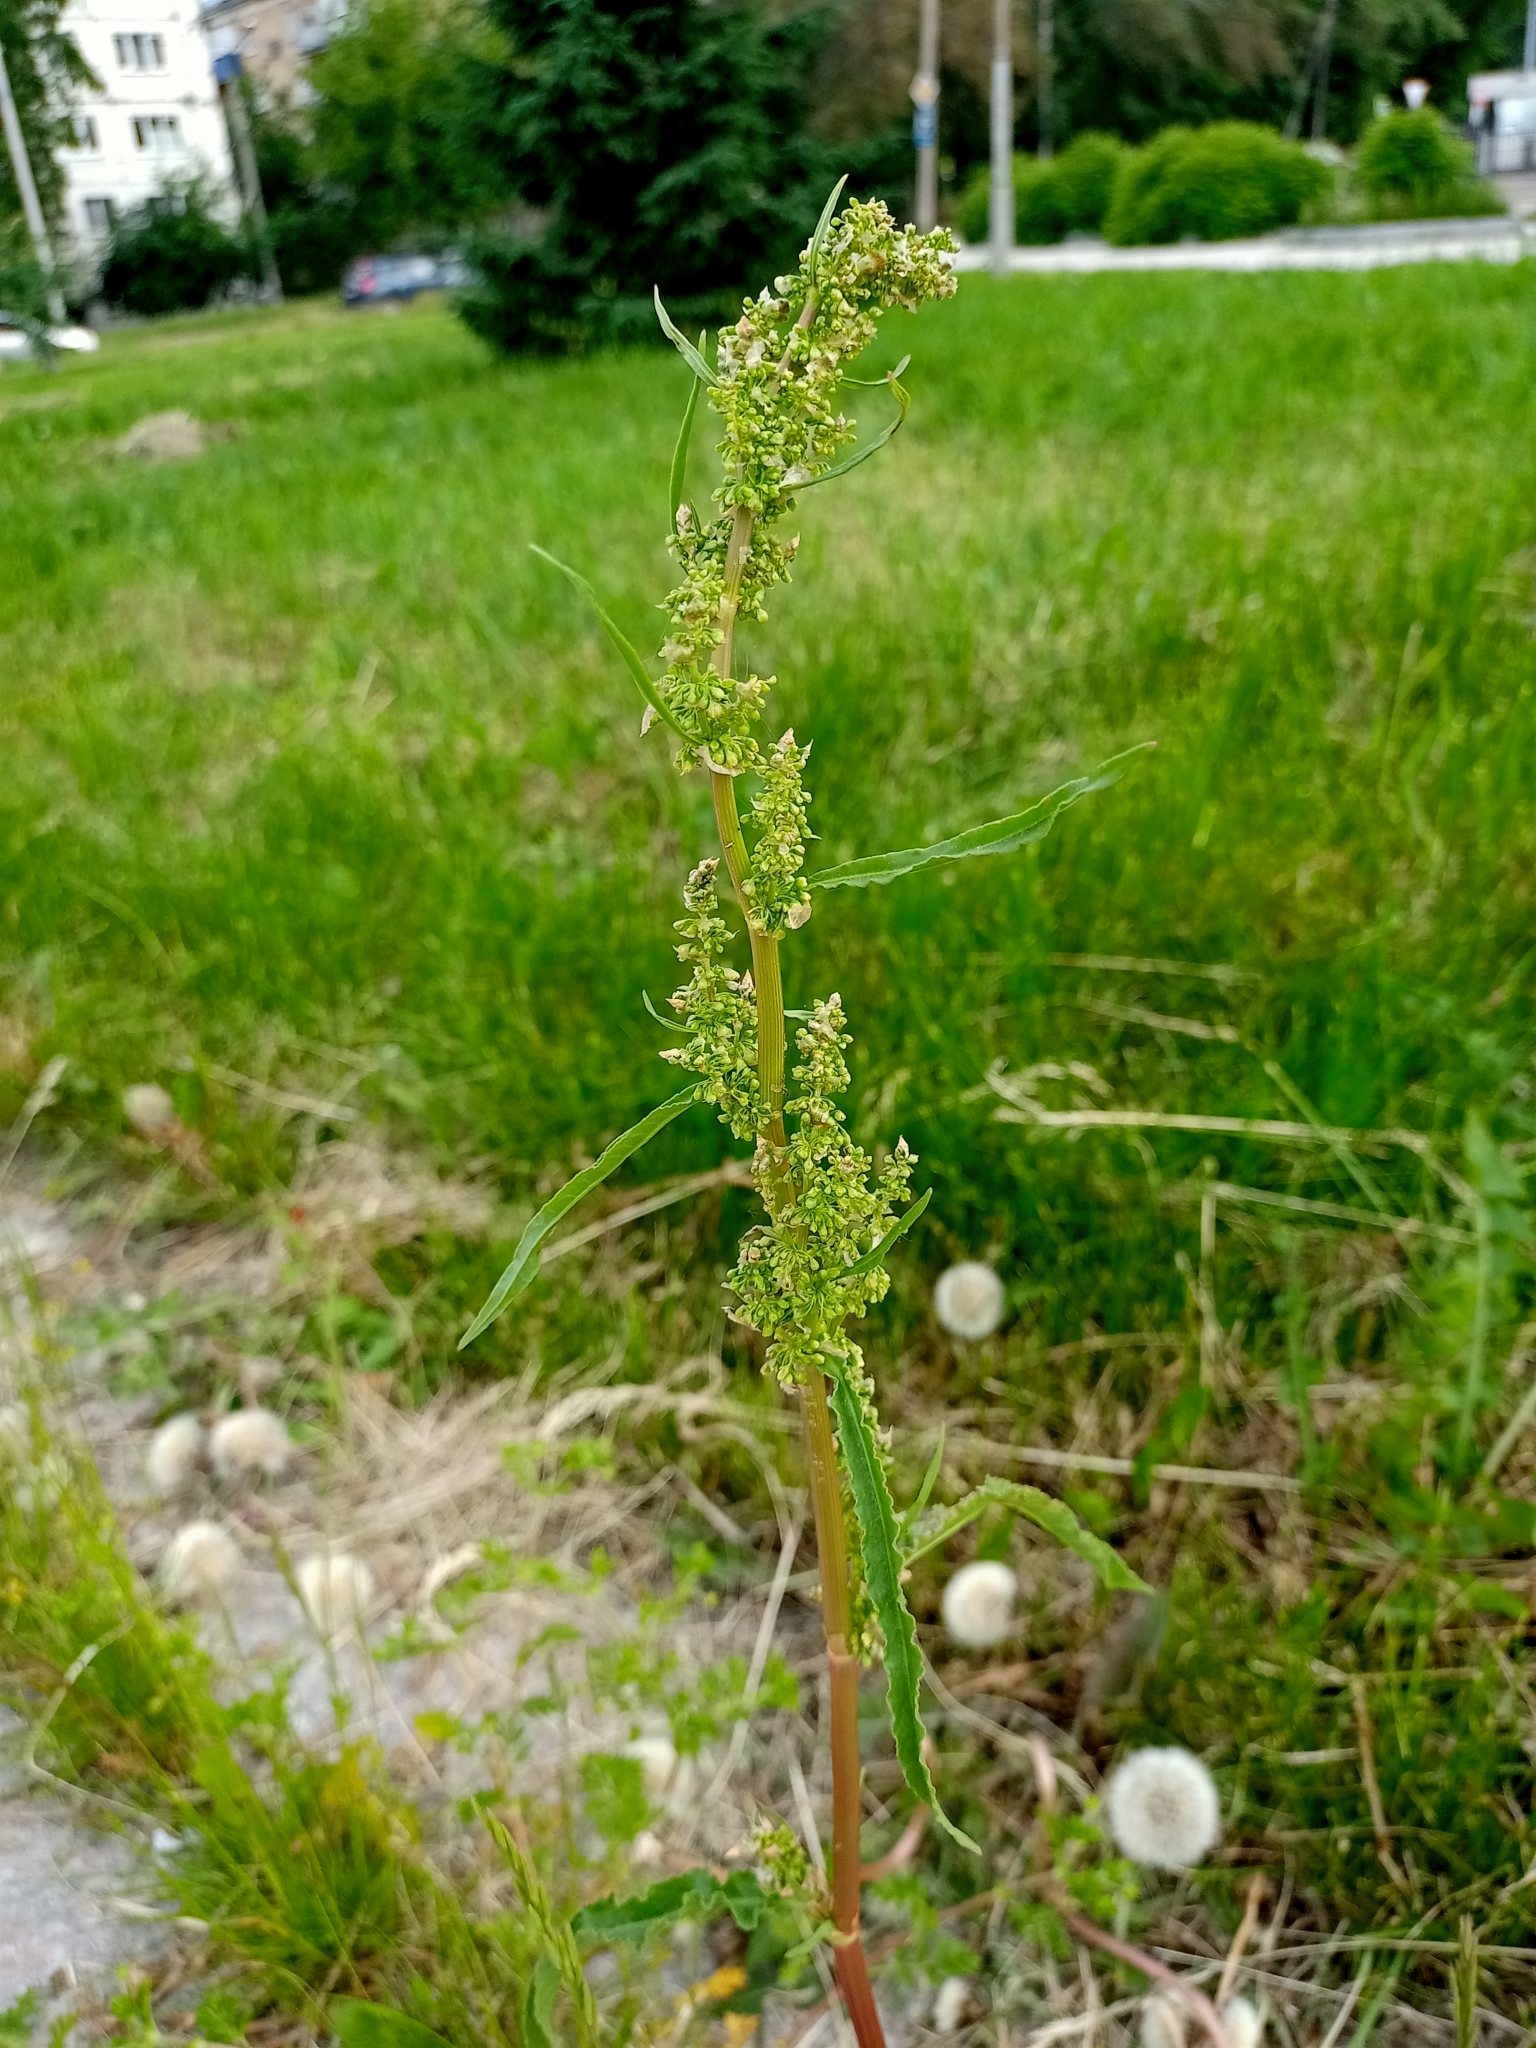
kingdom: Plantae
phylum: Tracheophyta
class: Magnoliopsida
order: Caryophyllales
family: Polygonaceae
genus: Rumex
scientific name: Rumex pseudonatronatus
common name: Field dock
